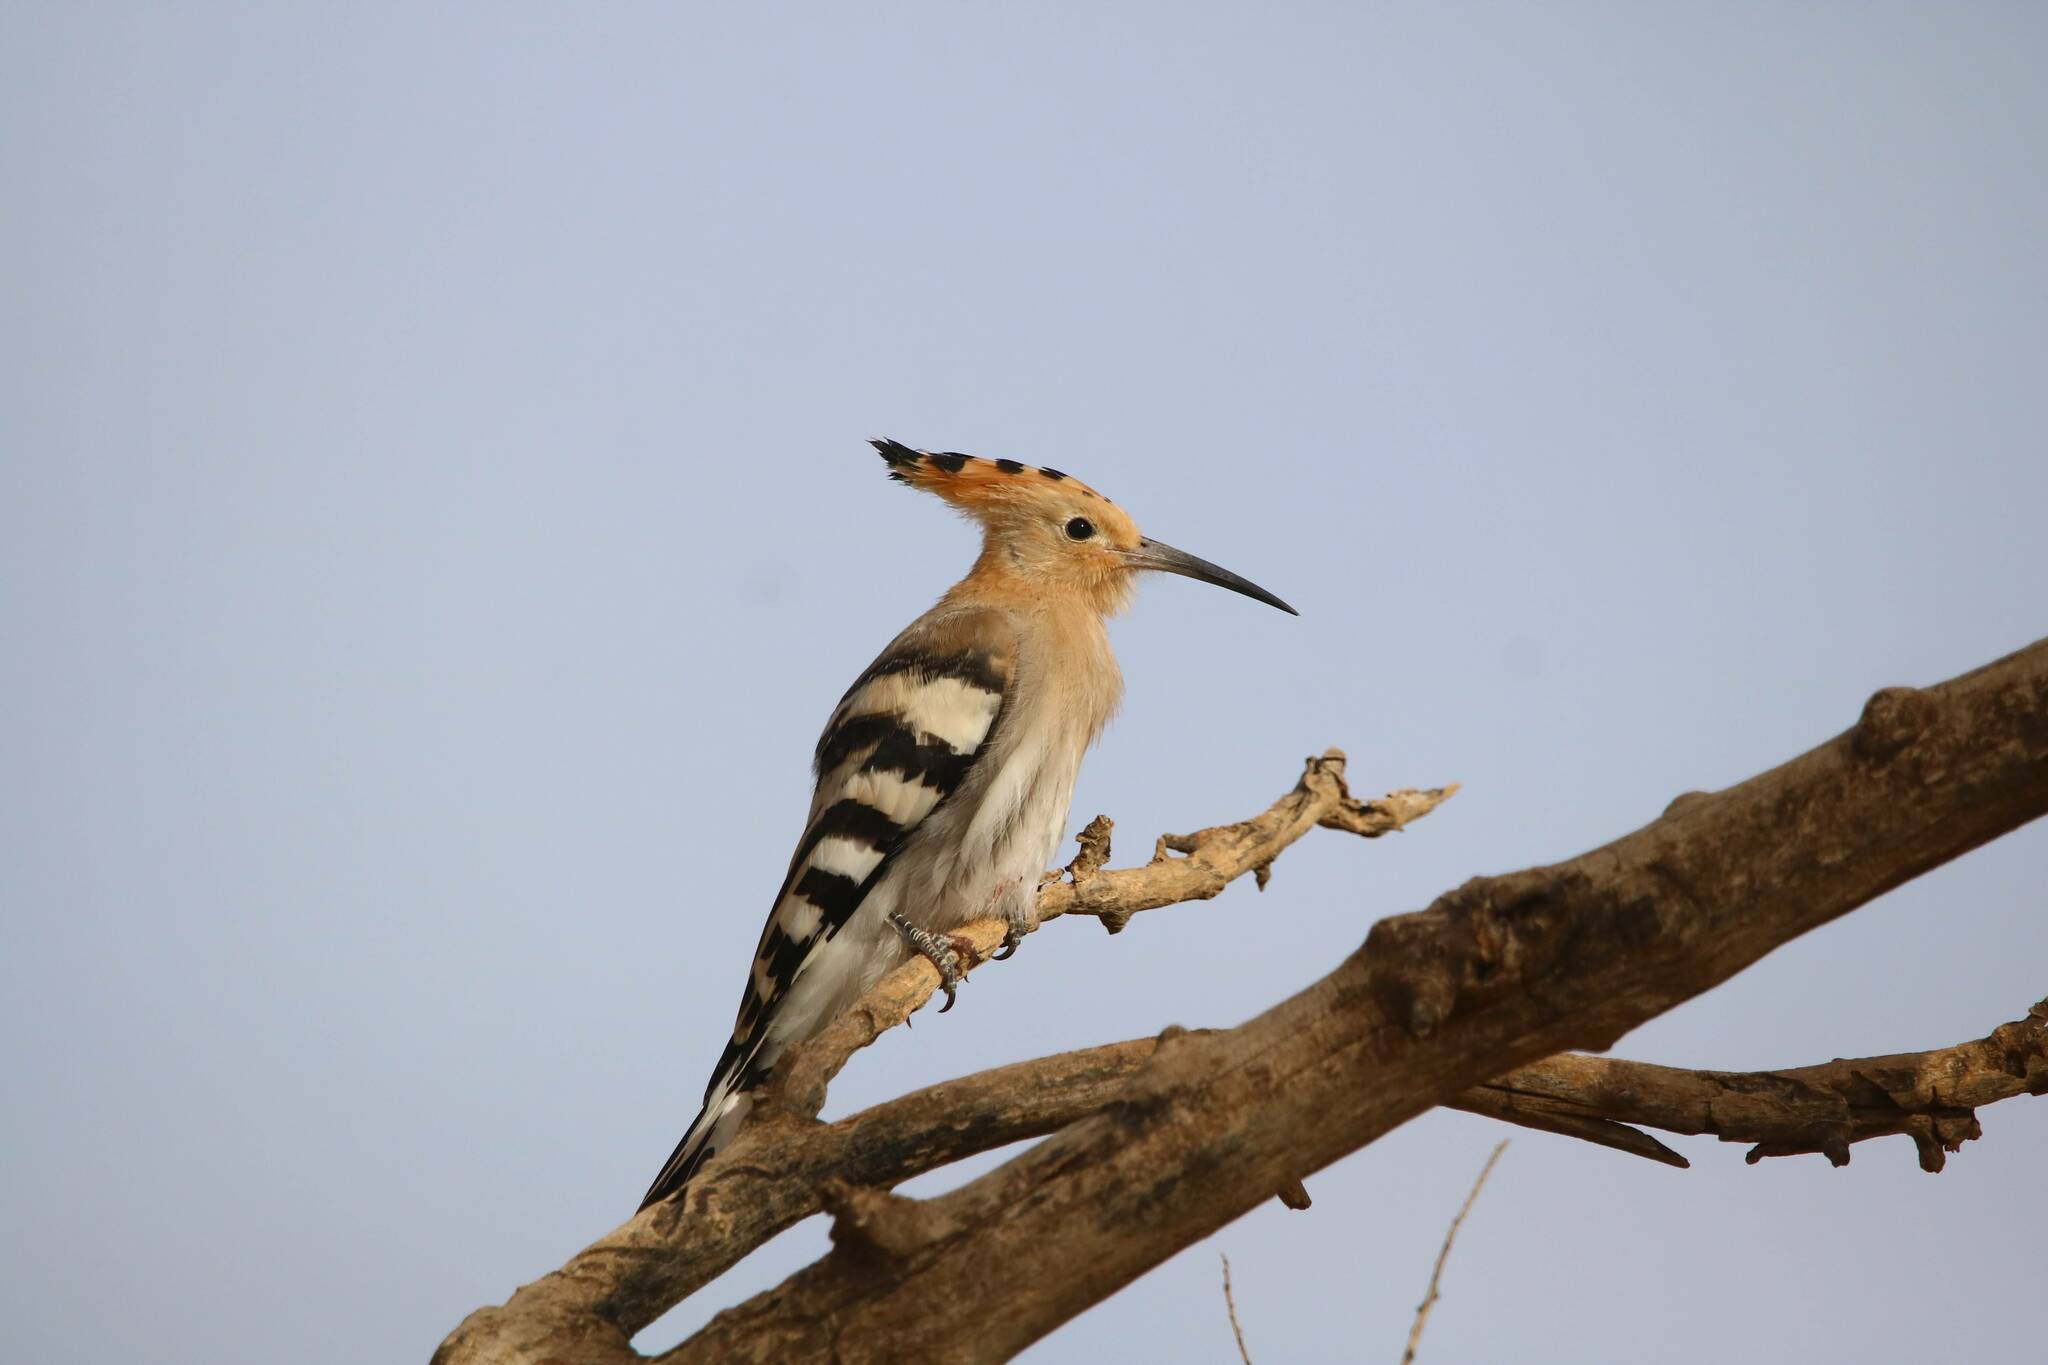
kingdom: Animalia
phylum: Chordata
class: Aves
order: Bucerotiformes
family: Upupidae
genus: Upupa
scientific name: Upupa epops
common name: Eurasian hoopoe
